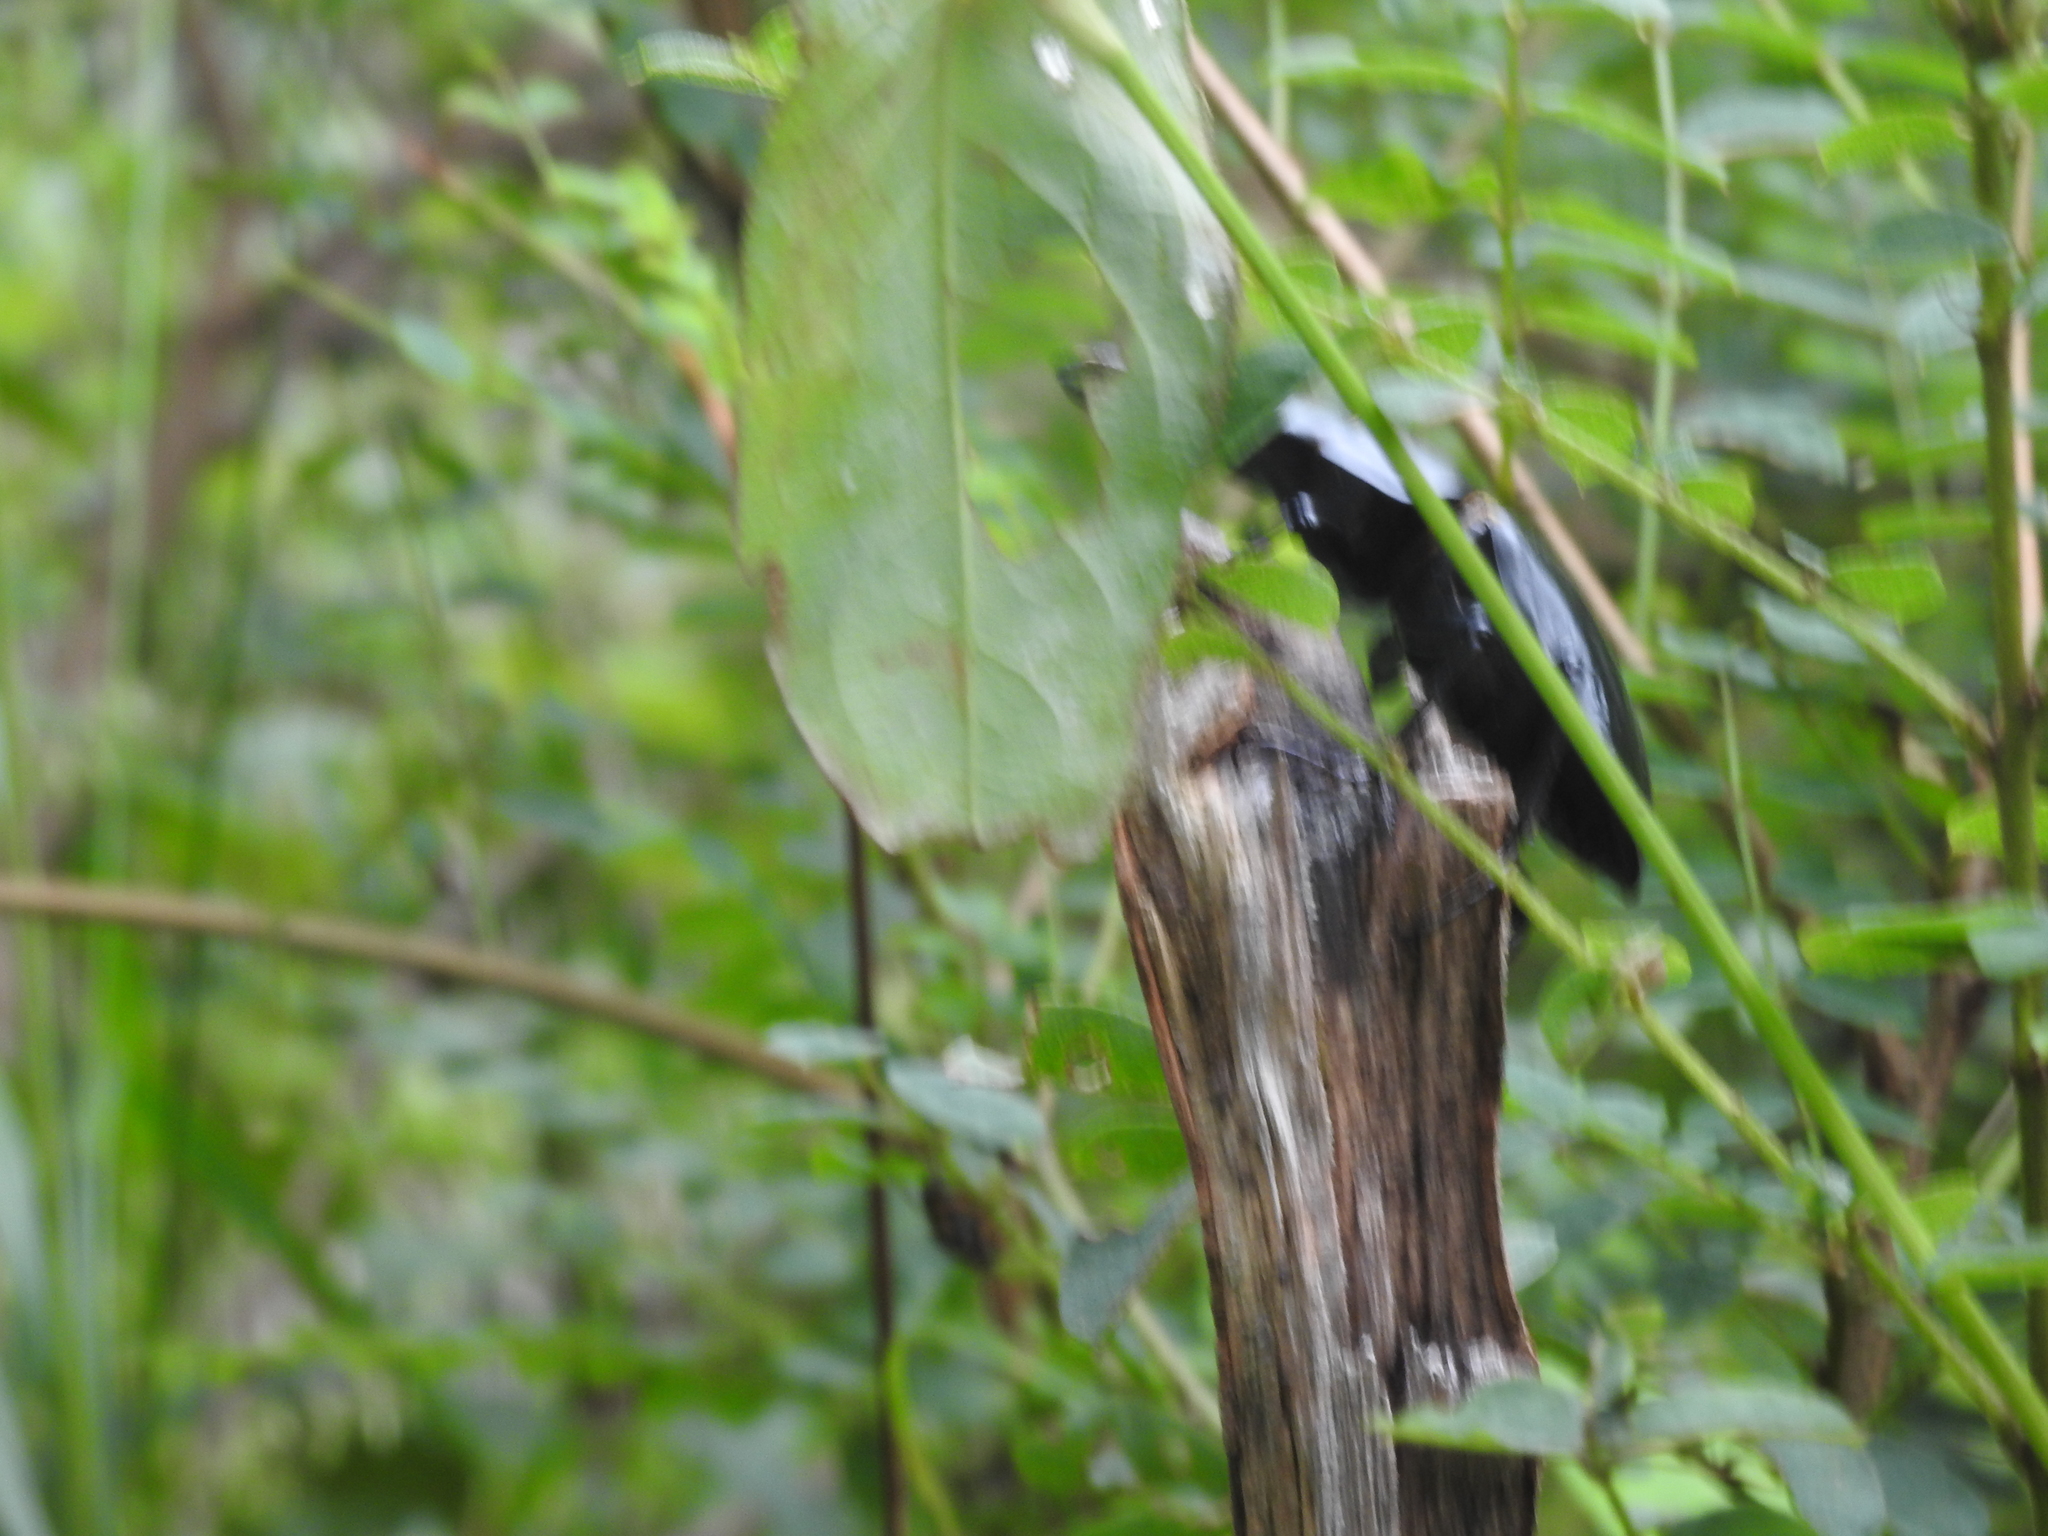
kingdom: Animalia
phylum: Arthropoda
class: Insecta
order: Coleoptera
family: Lucanidae
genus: Dorcus
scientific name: Dorcus nepalensis
